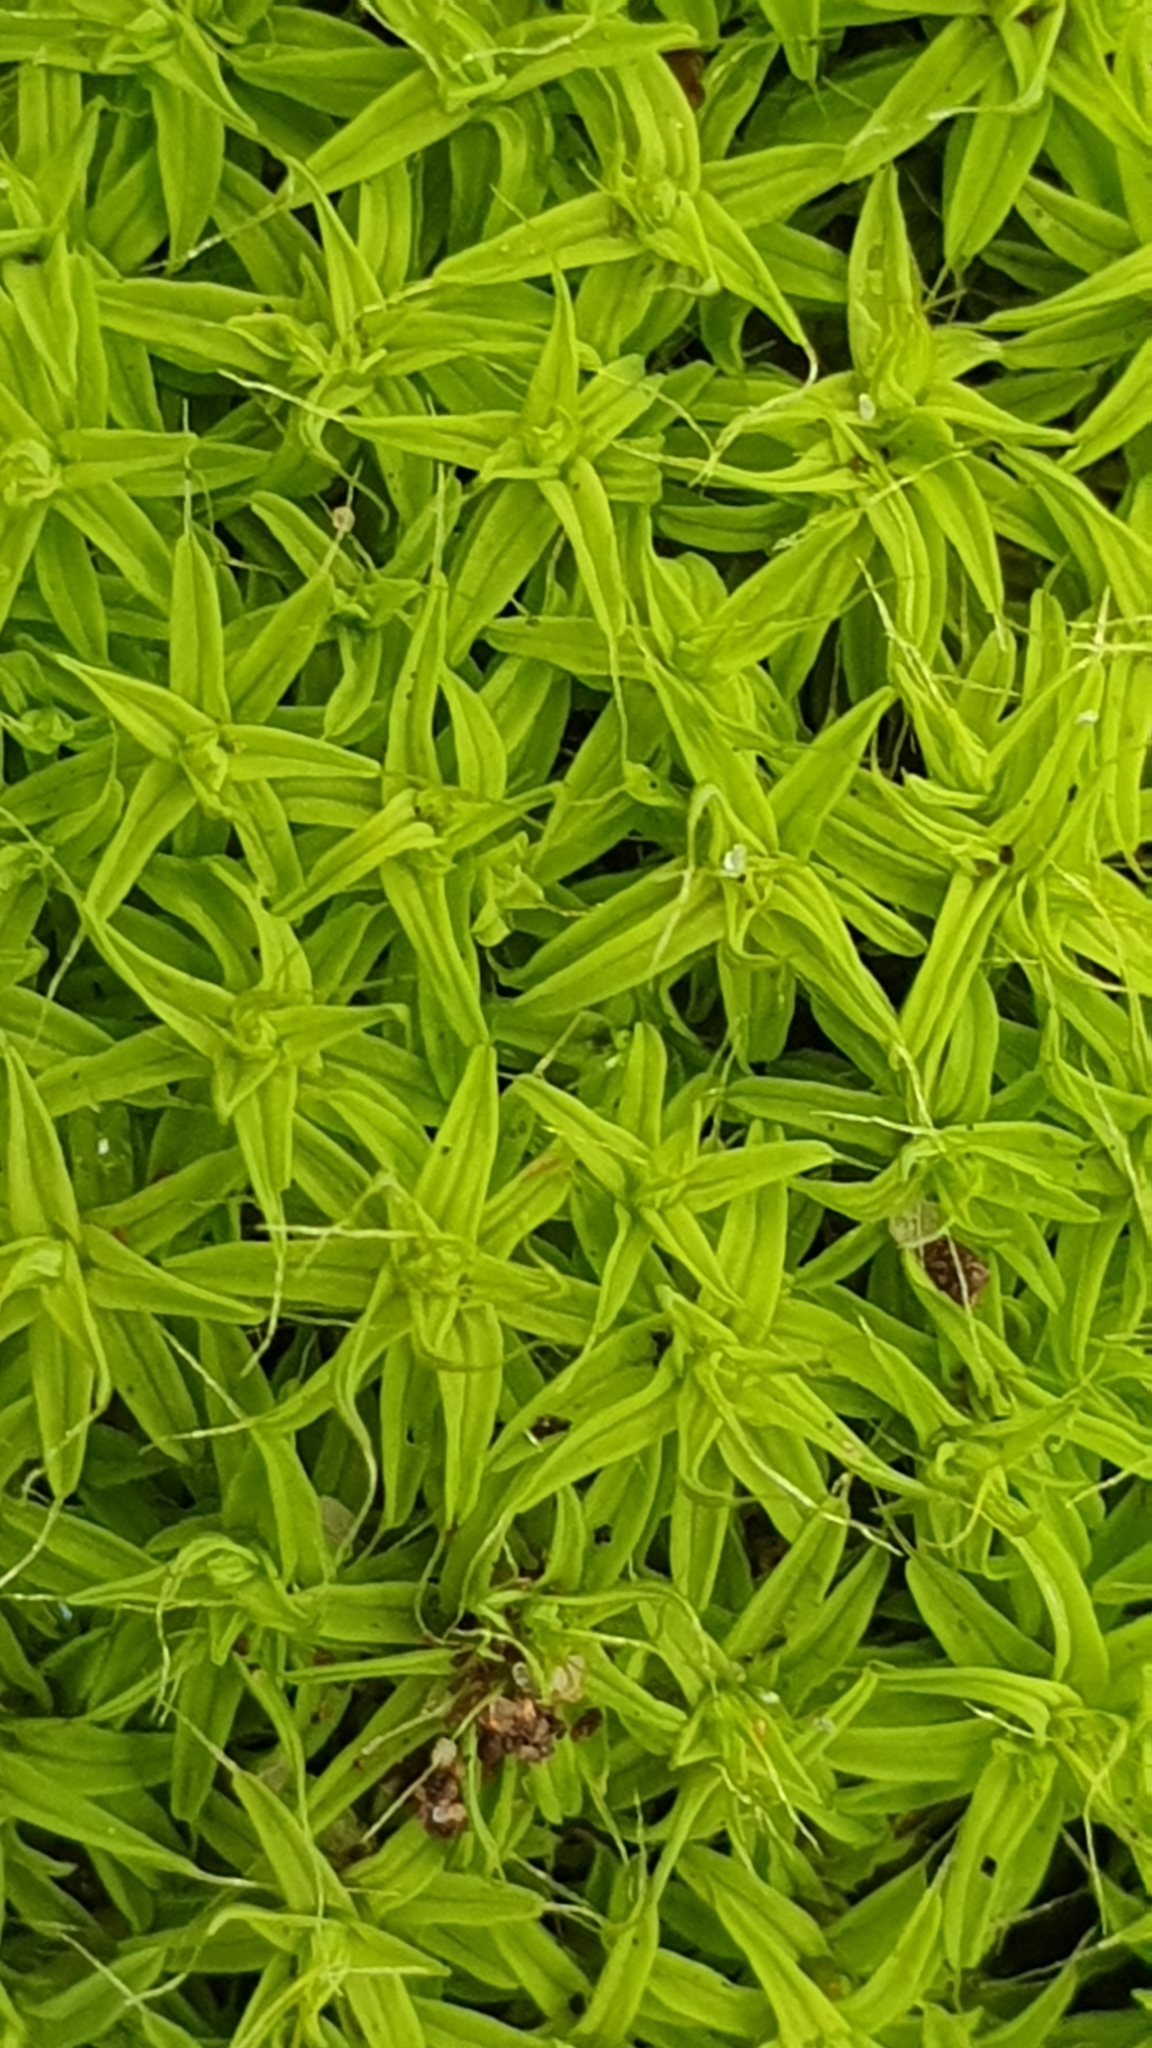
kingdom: Plantae
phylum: Bryophyta
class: Bryopsida
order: Pottiales
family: Pottiaceae
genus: Pseudocrossidium
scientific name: Pseudocrossidium crinitum
